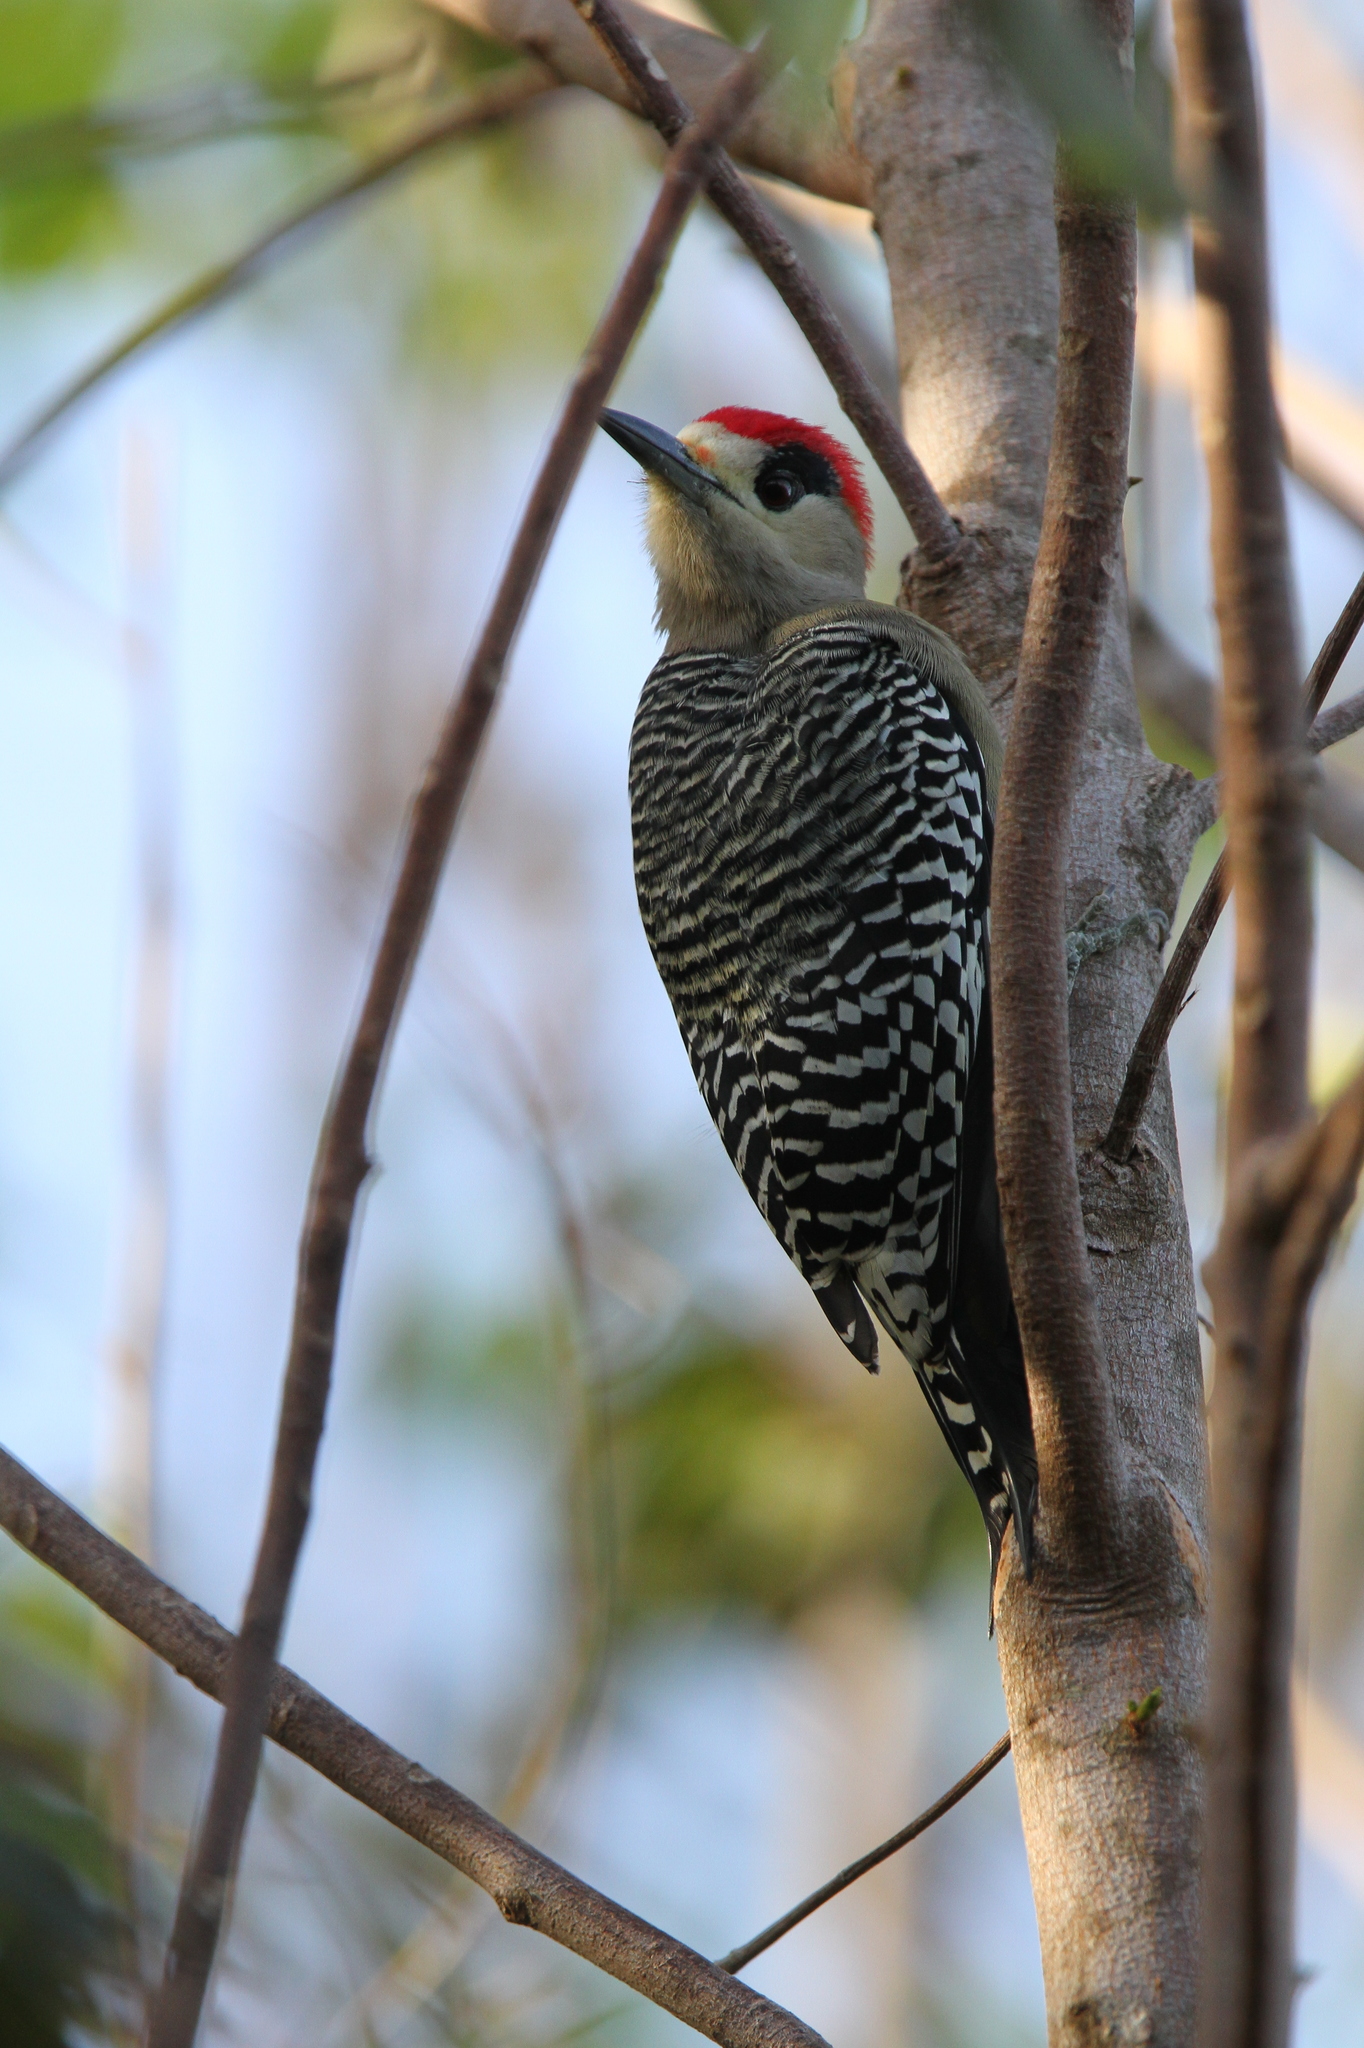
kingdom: Animalia
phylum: Chordata
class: Aves
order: Piciformes
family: Picidae
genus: Melanerpes
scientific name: Melanerpes superciliaris
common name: West indian woodpecker
